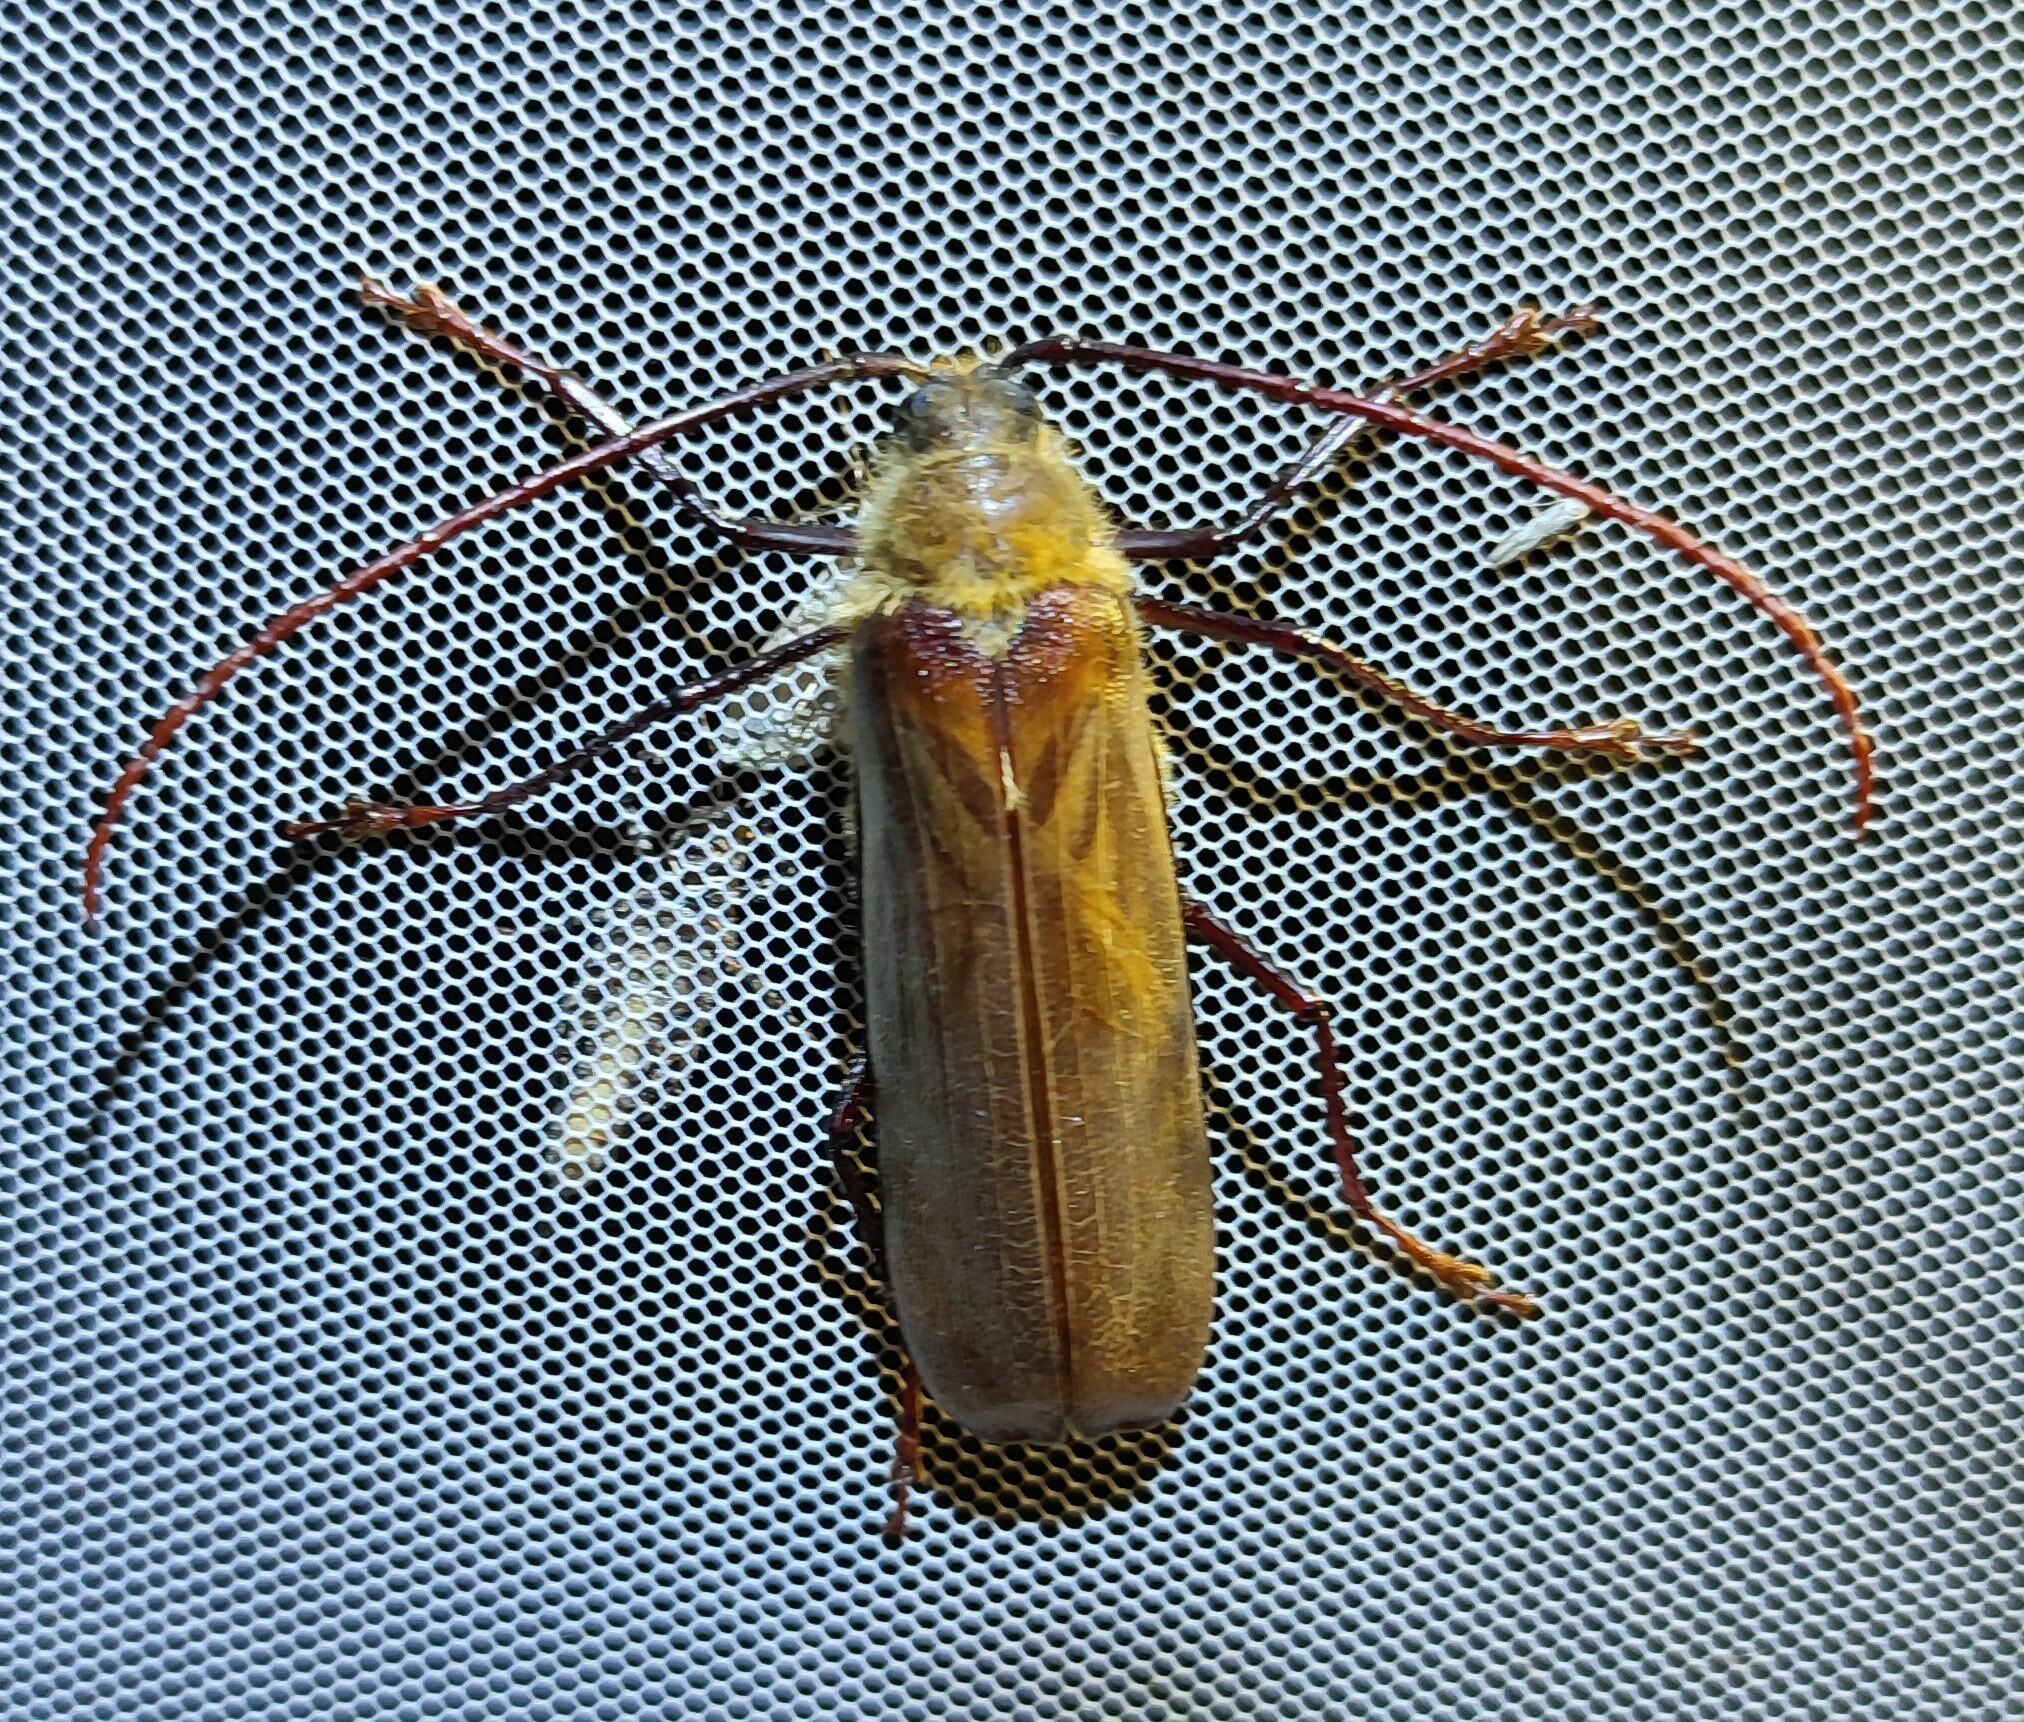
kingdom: Animalia
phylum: Arthropoda
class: Insecta
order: Coleoptera
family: Cerambycidae
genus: Erioderus
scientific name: Erioderus hirtus
